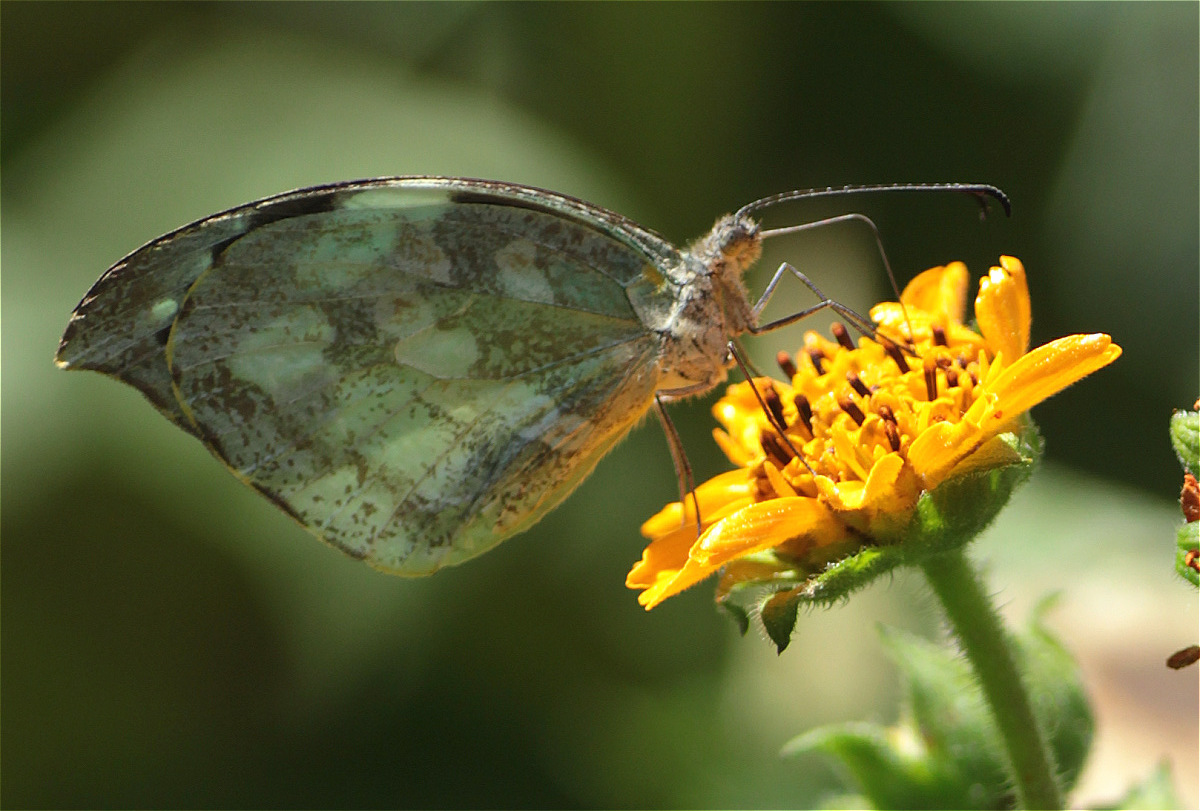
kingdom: Animalia
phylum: Arthropoda
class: Insecta
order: Lepidoptera
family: Pieridae
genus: Lieinix
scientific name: Lieinix nemesis
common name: Frosted mimic-white
